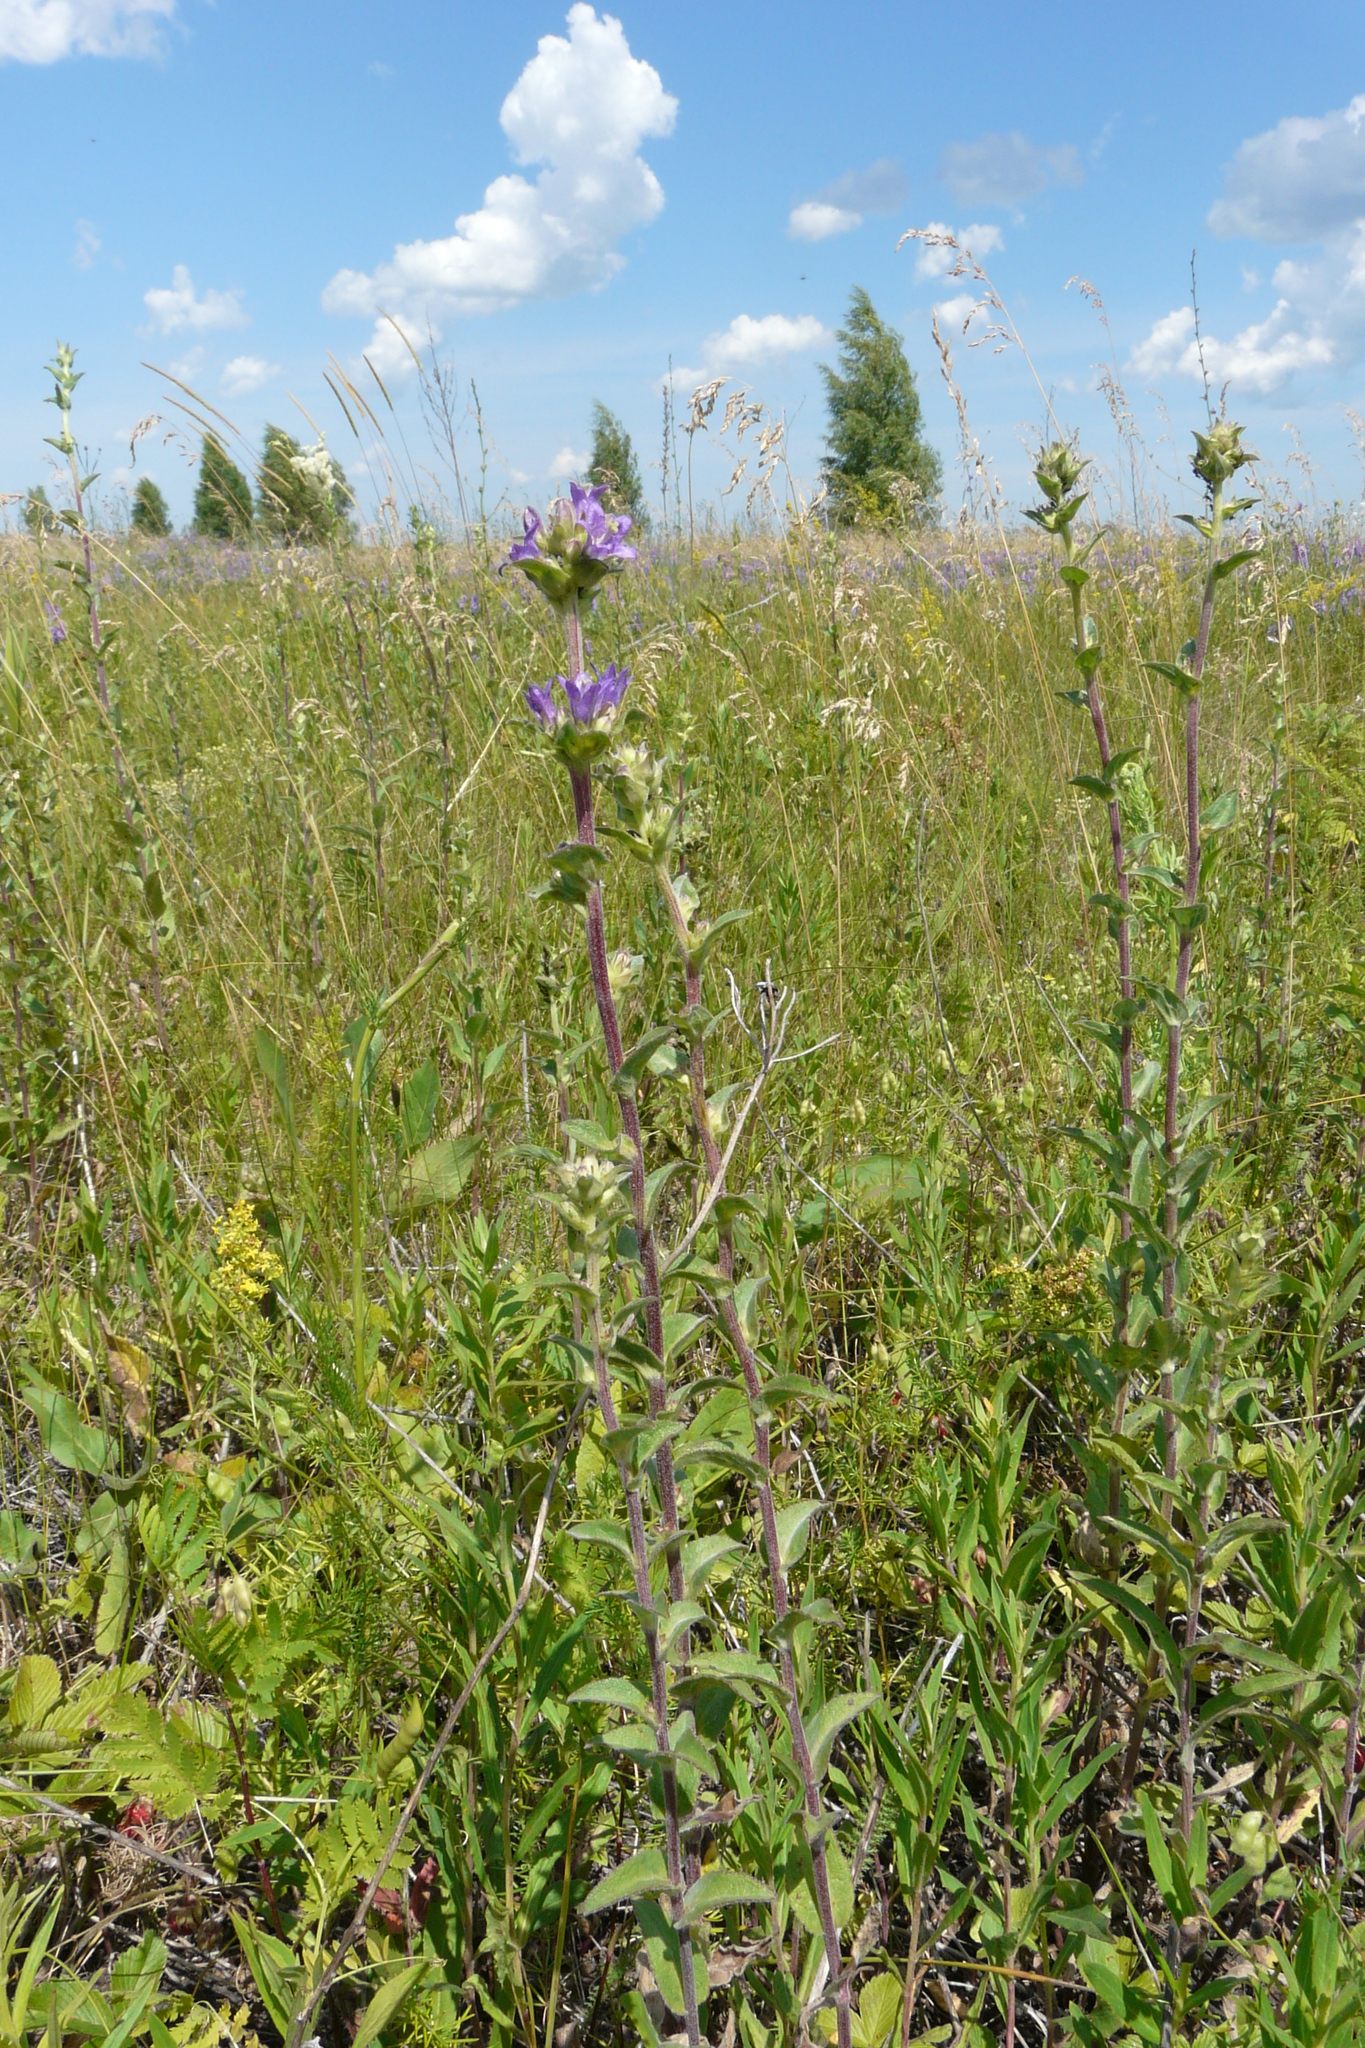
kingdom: Plantae
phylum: Tracheophyta
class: Magnoliopsida
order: Asterales
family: Campanulaceae
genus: Campanula
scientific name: Campanula glomerata
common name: Clustered bellflower
